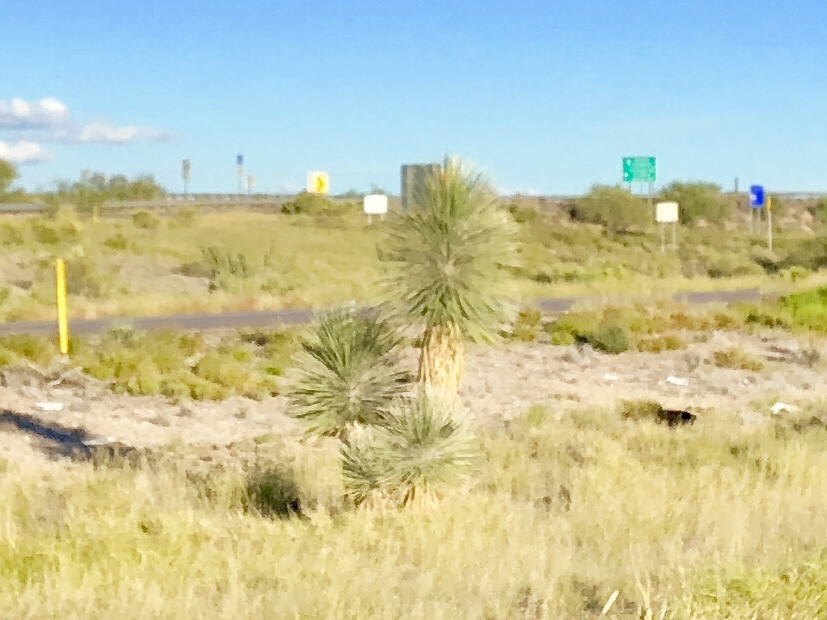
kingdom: Plantae
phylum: Tracheophyta
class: Liliopsida
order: Asparagales
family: Asparagaceae
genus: Yucca
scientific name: Yucca elata
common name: Palmella
